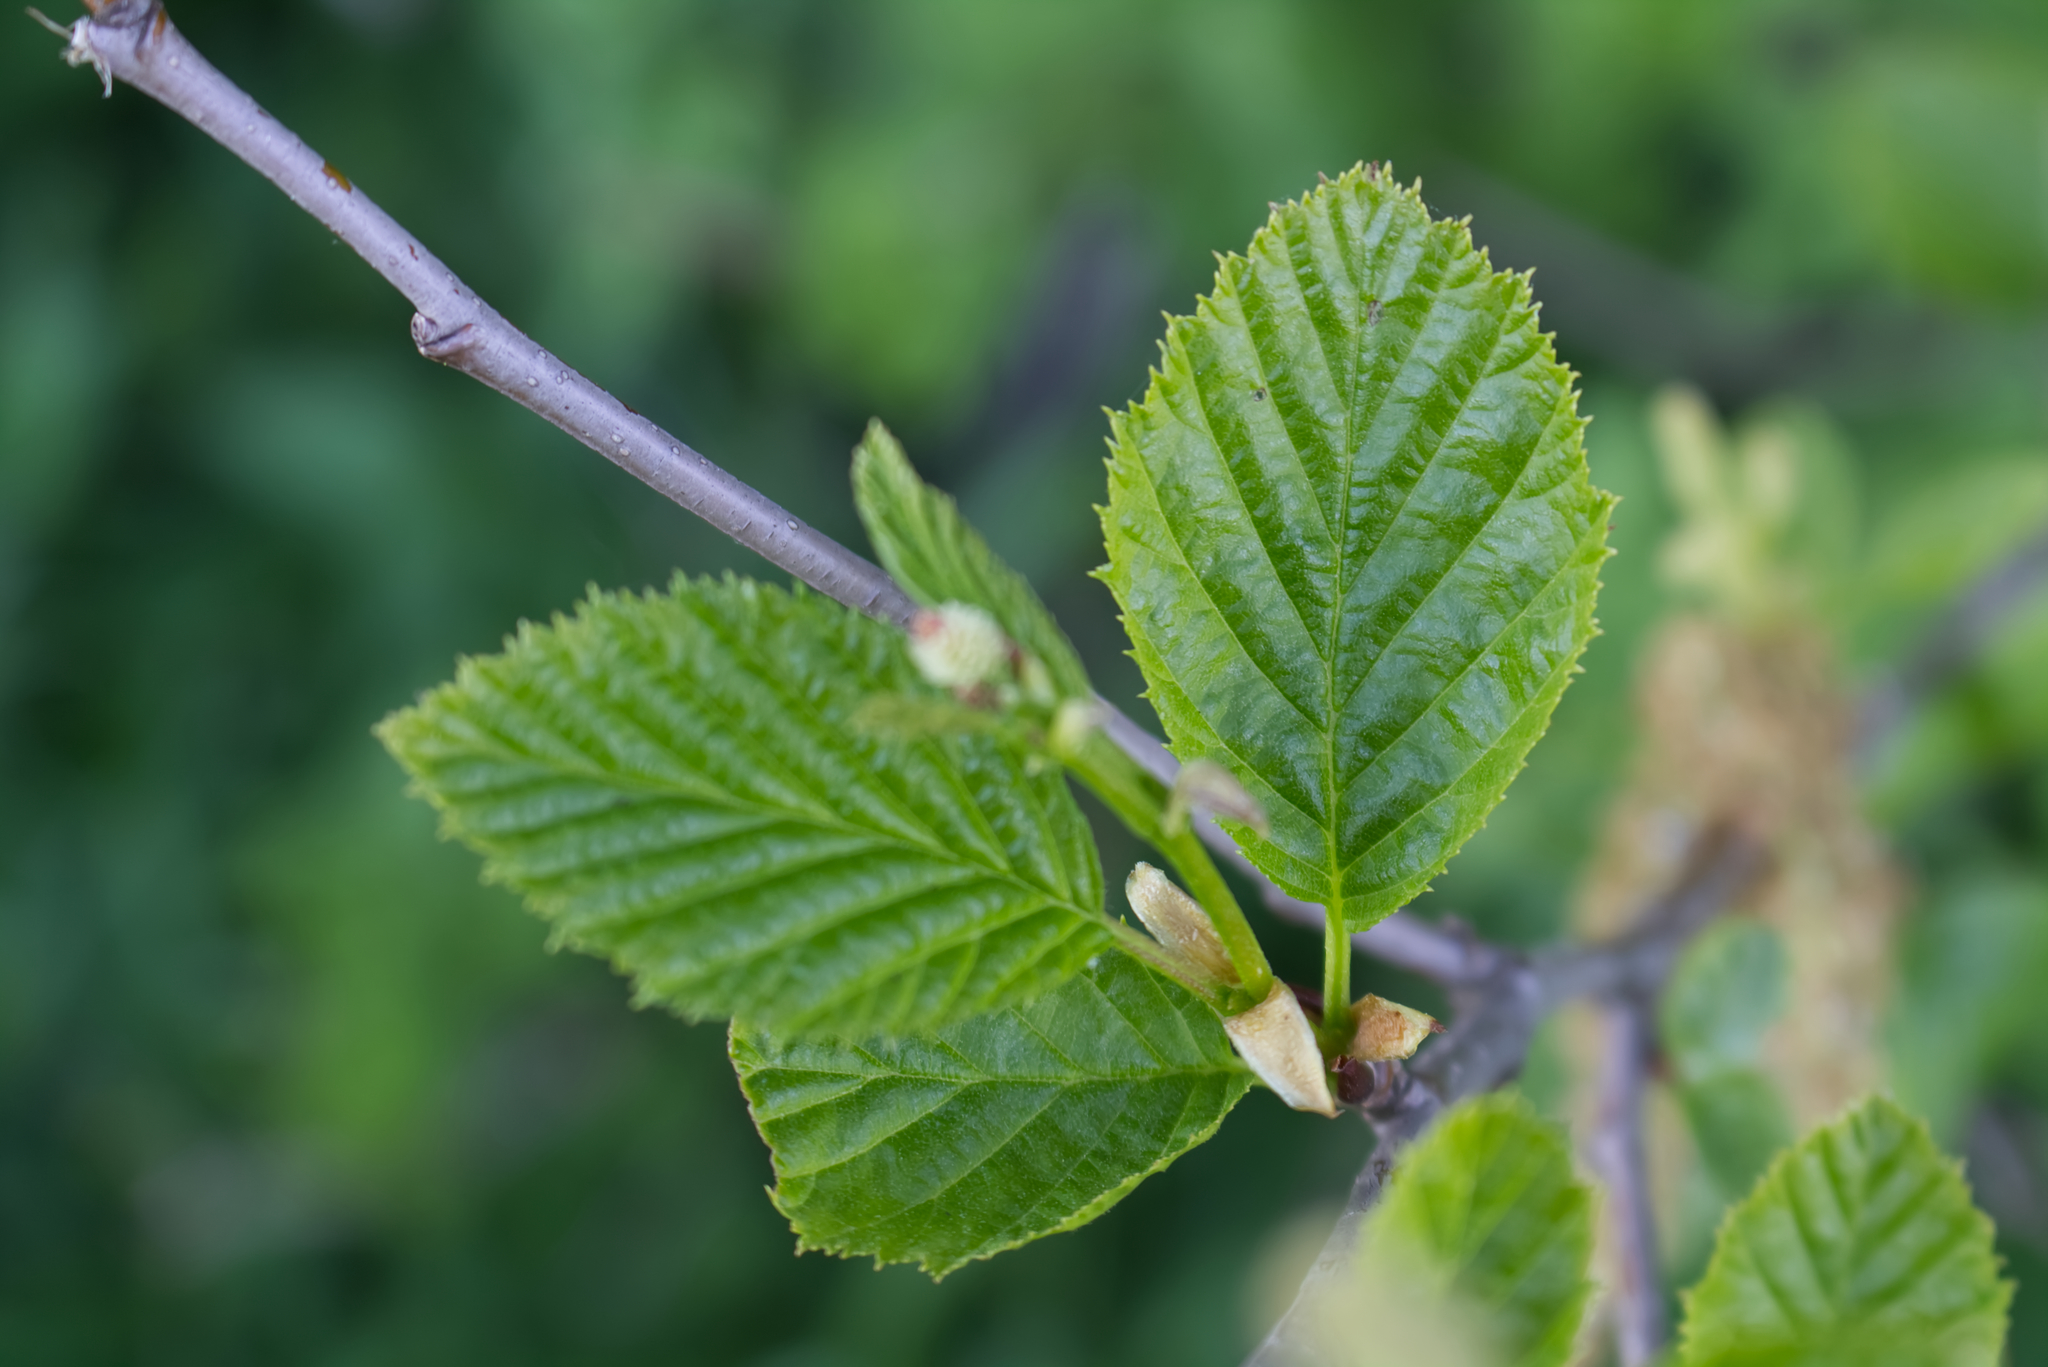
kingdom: Plantae
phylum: Tracheophyta
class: Magnoliopsida
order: Fagales
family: Betulaceae
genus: Alnus
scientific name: Alnus alnobetula
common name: Green alder
